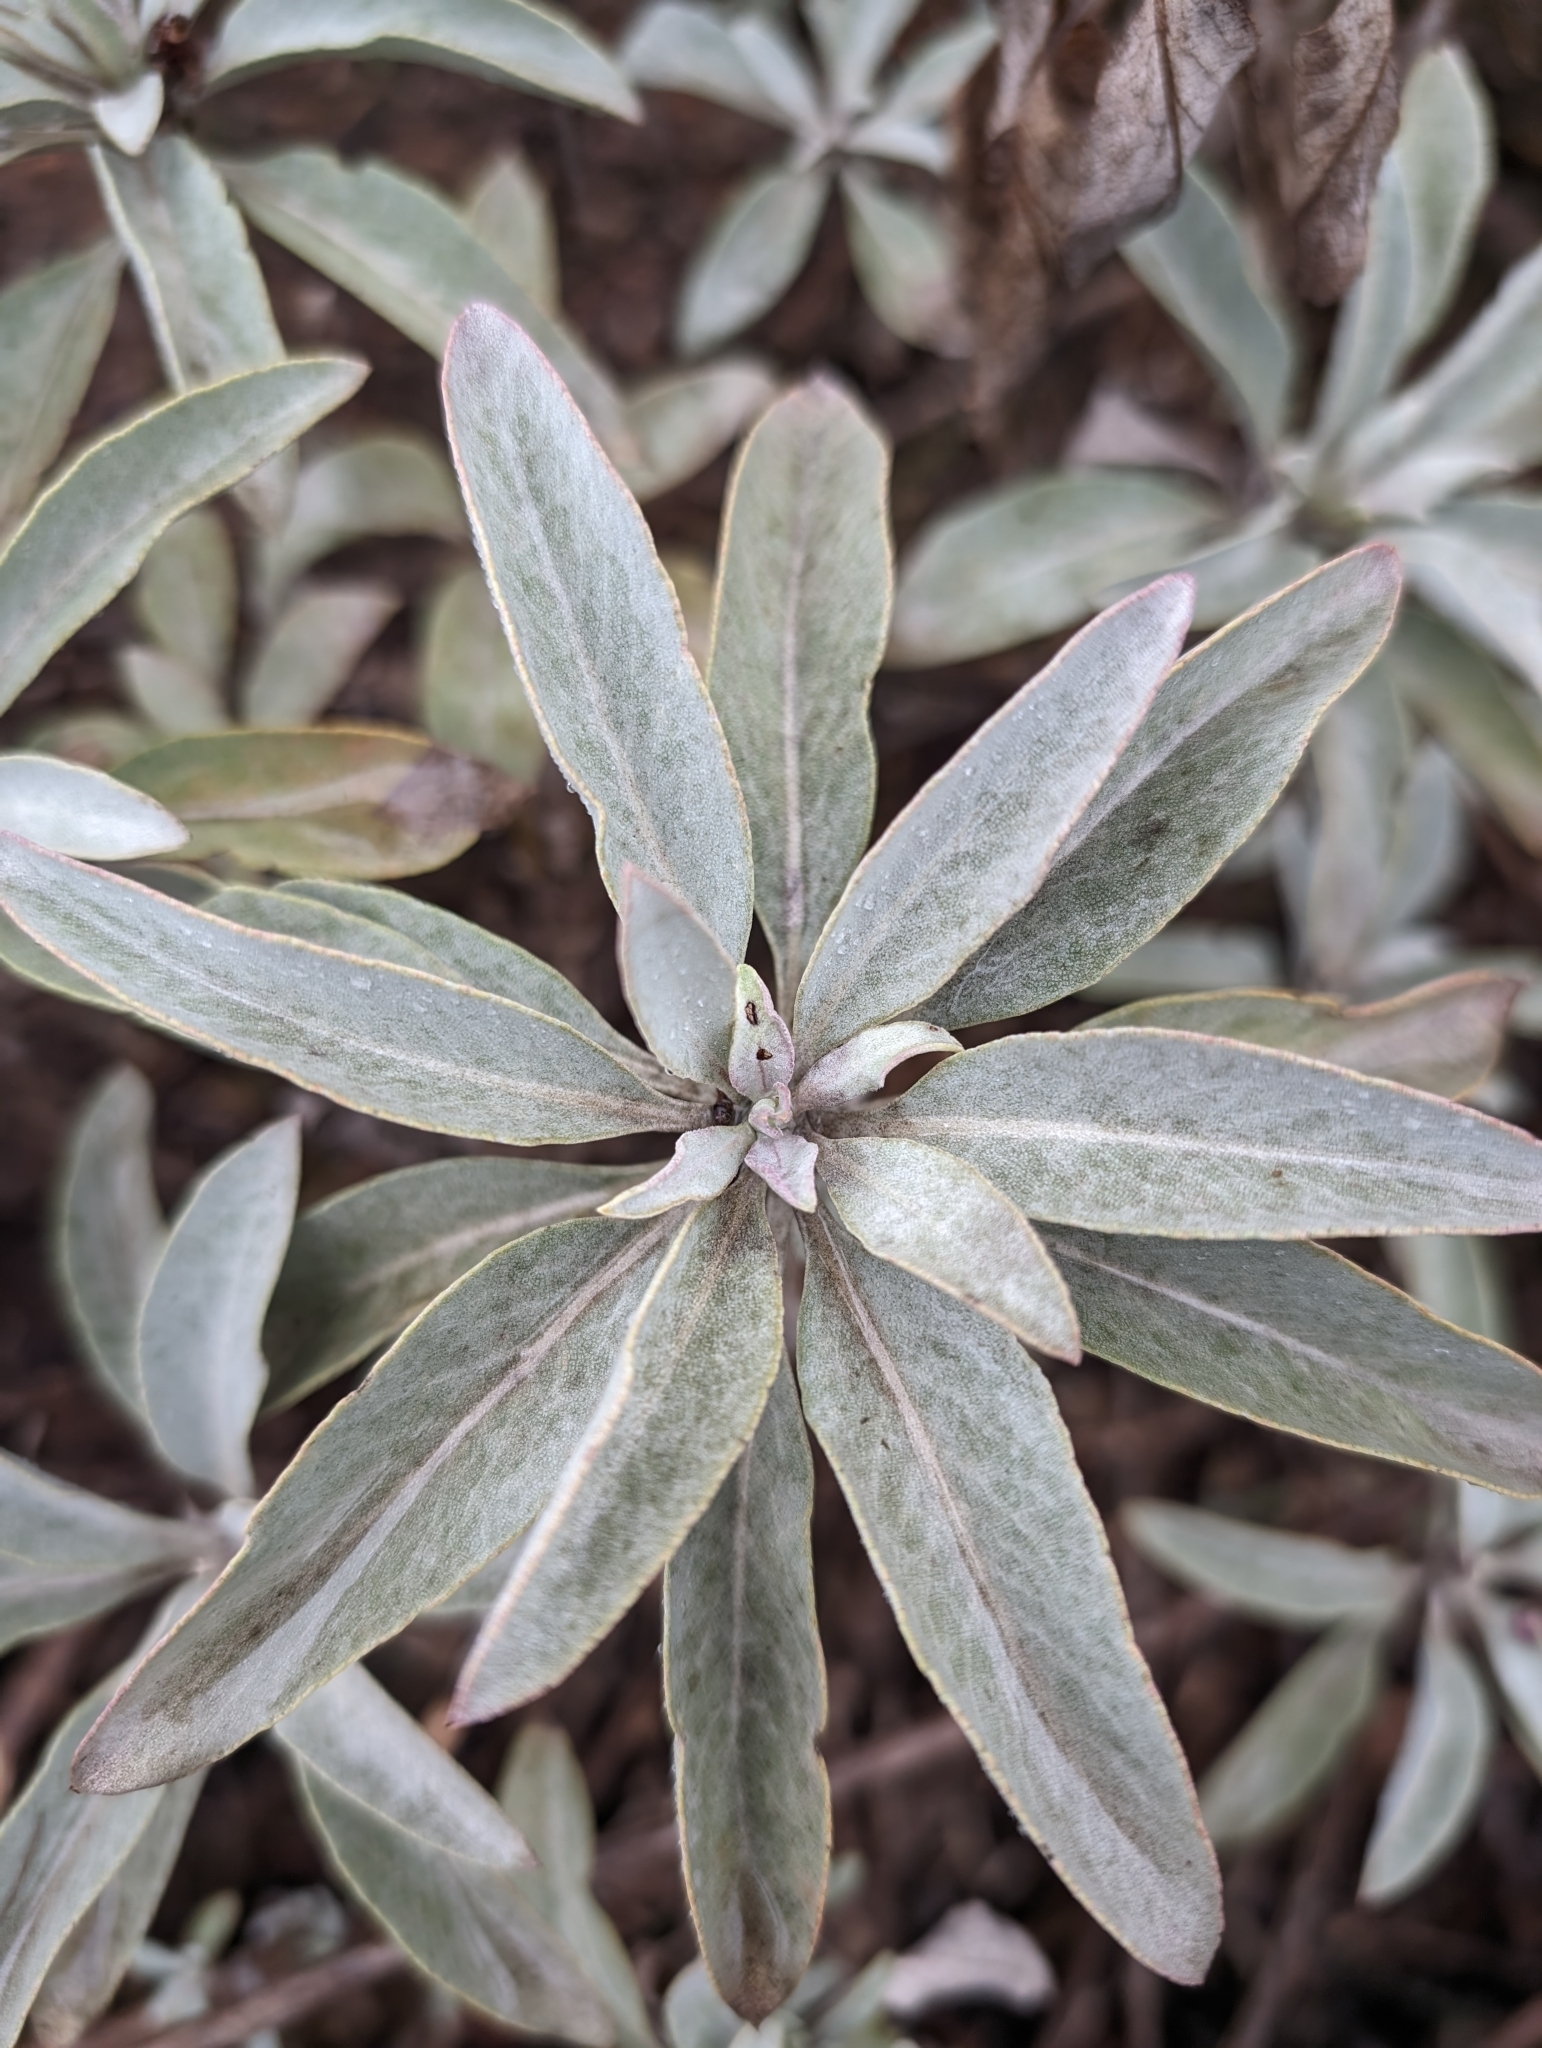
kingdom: Plantae
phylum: Tracheophyta
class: Magnoliopsida
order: Lamiales
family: Lamiaceae
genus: Salvia
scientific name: Salvia apiana
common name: White sage
